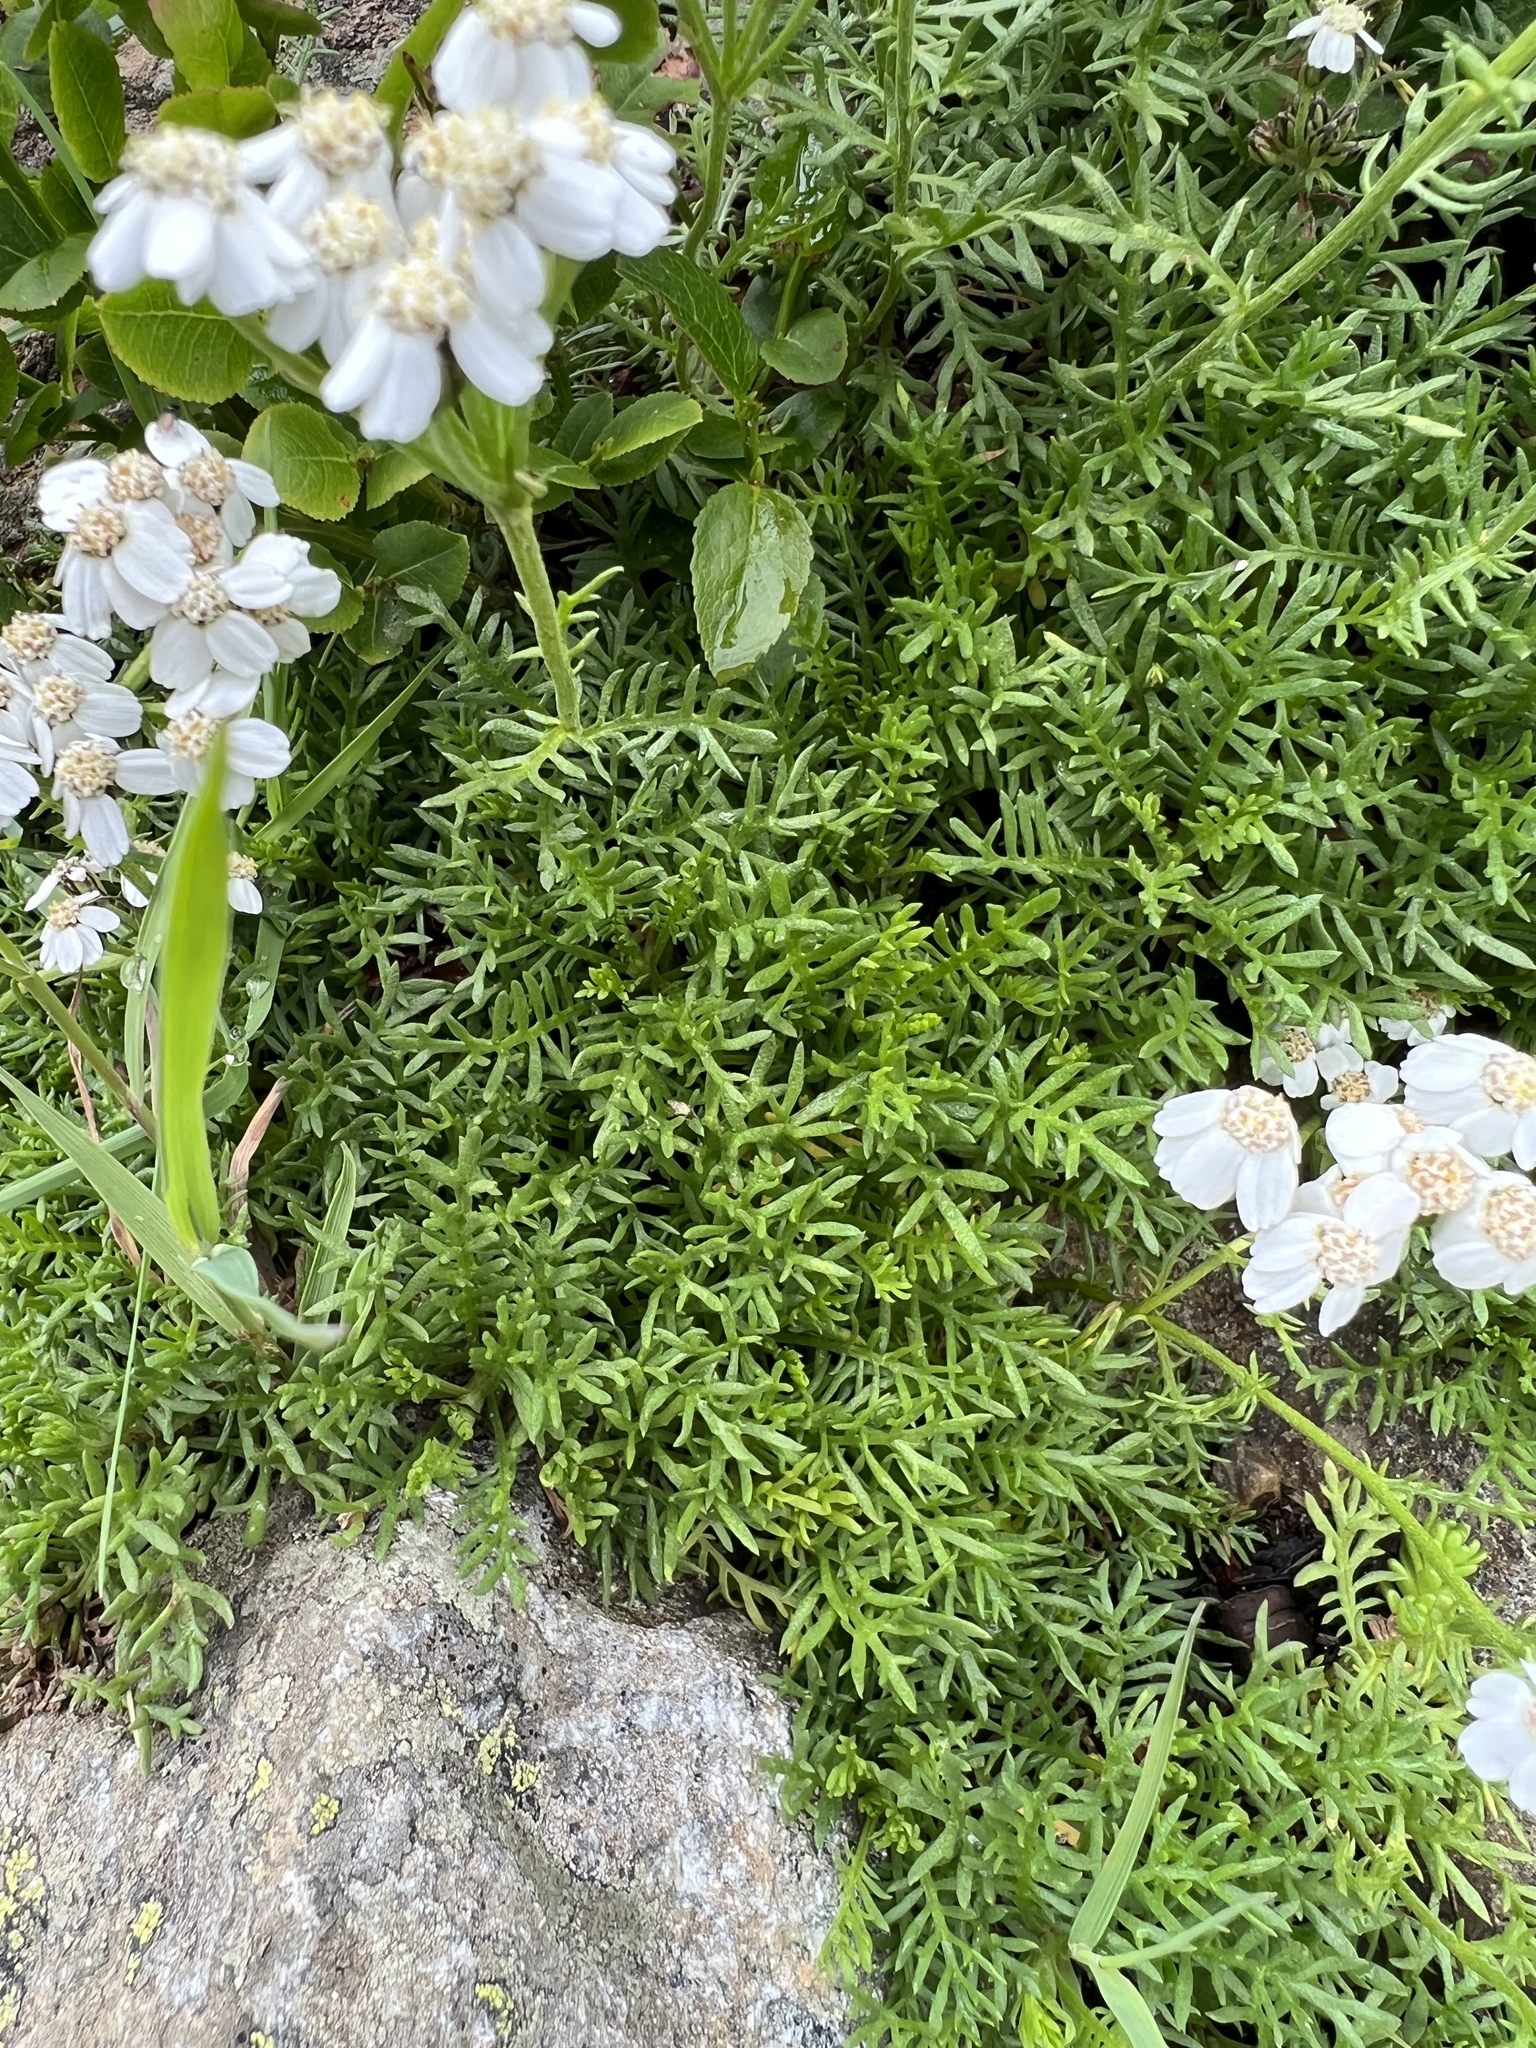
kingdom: Plantae
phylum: Tracheophyta
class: Magnoliopsida
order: Asterales
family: Asteraceae
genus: Achillea
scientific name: Achillea erba-rotta
